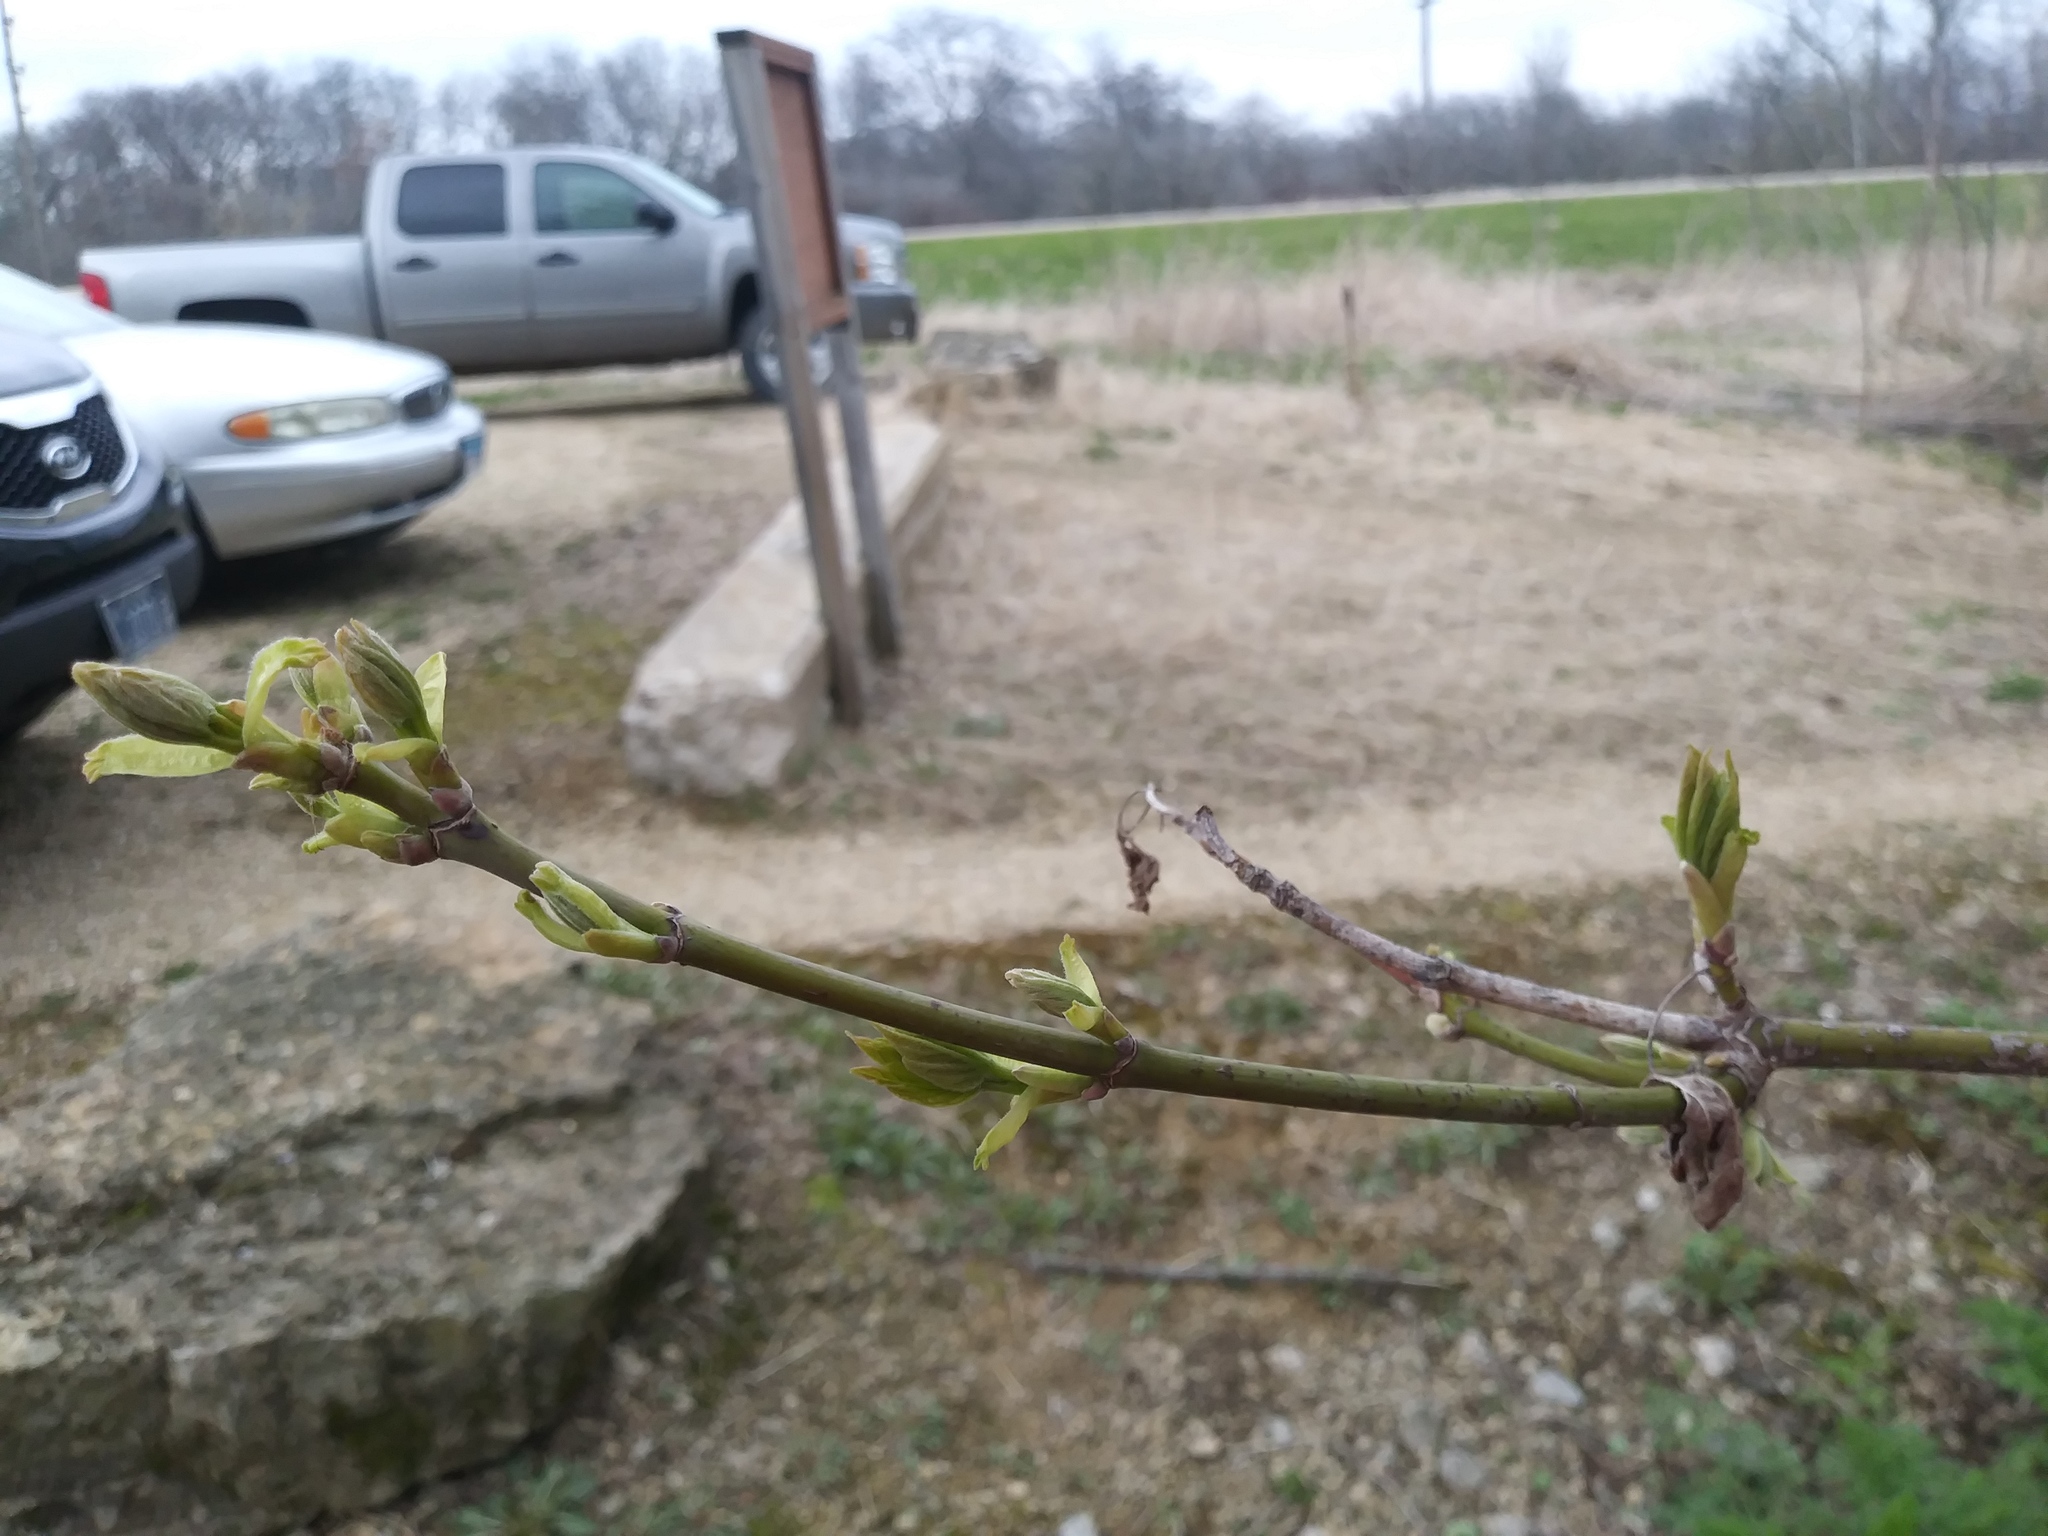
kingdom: Plantae
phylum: Tracheophyta
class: Magnoliopsida
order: Sapindales
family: Sapindaceae
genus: Acer
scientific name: Acer negundo
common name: Ashleaf maple
